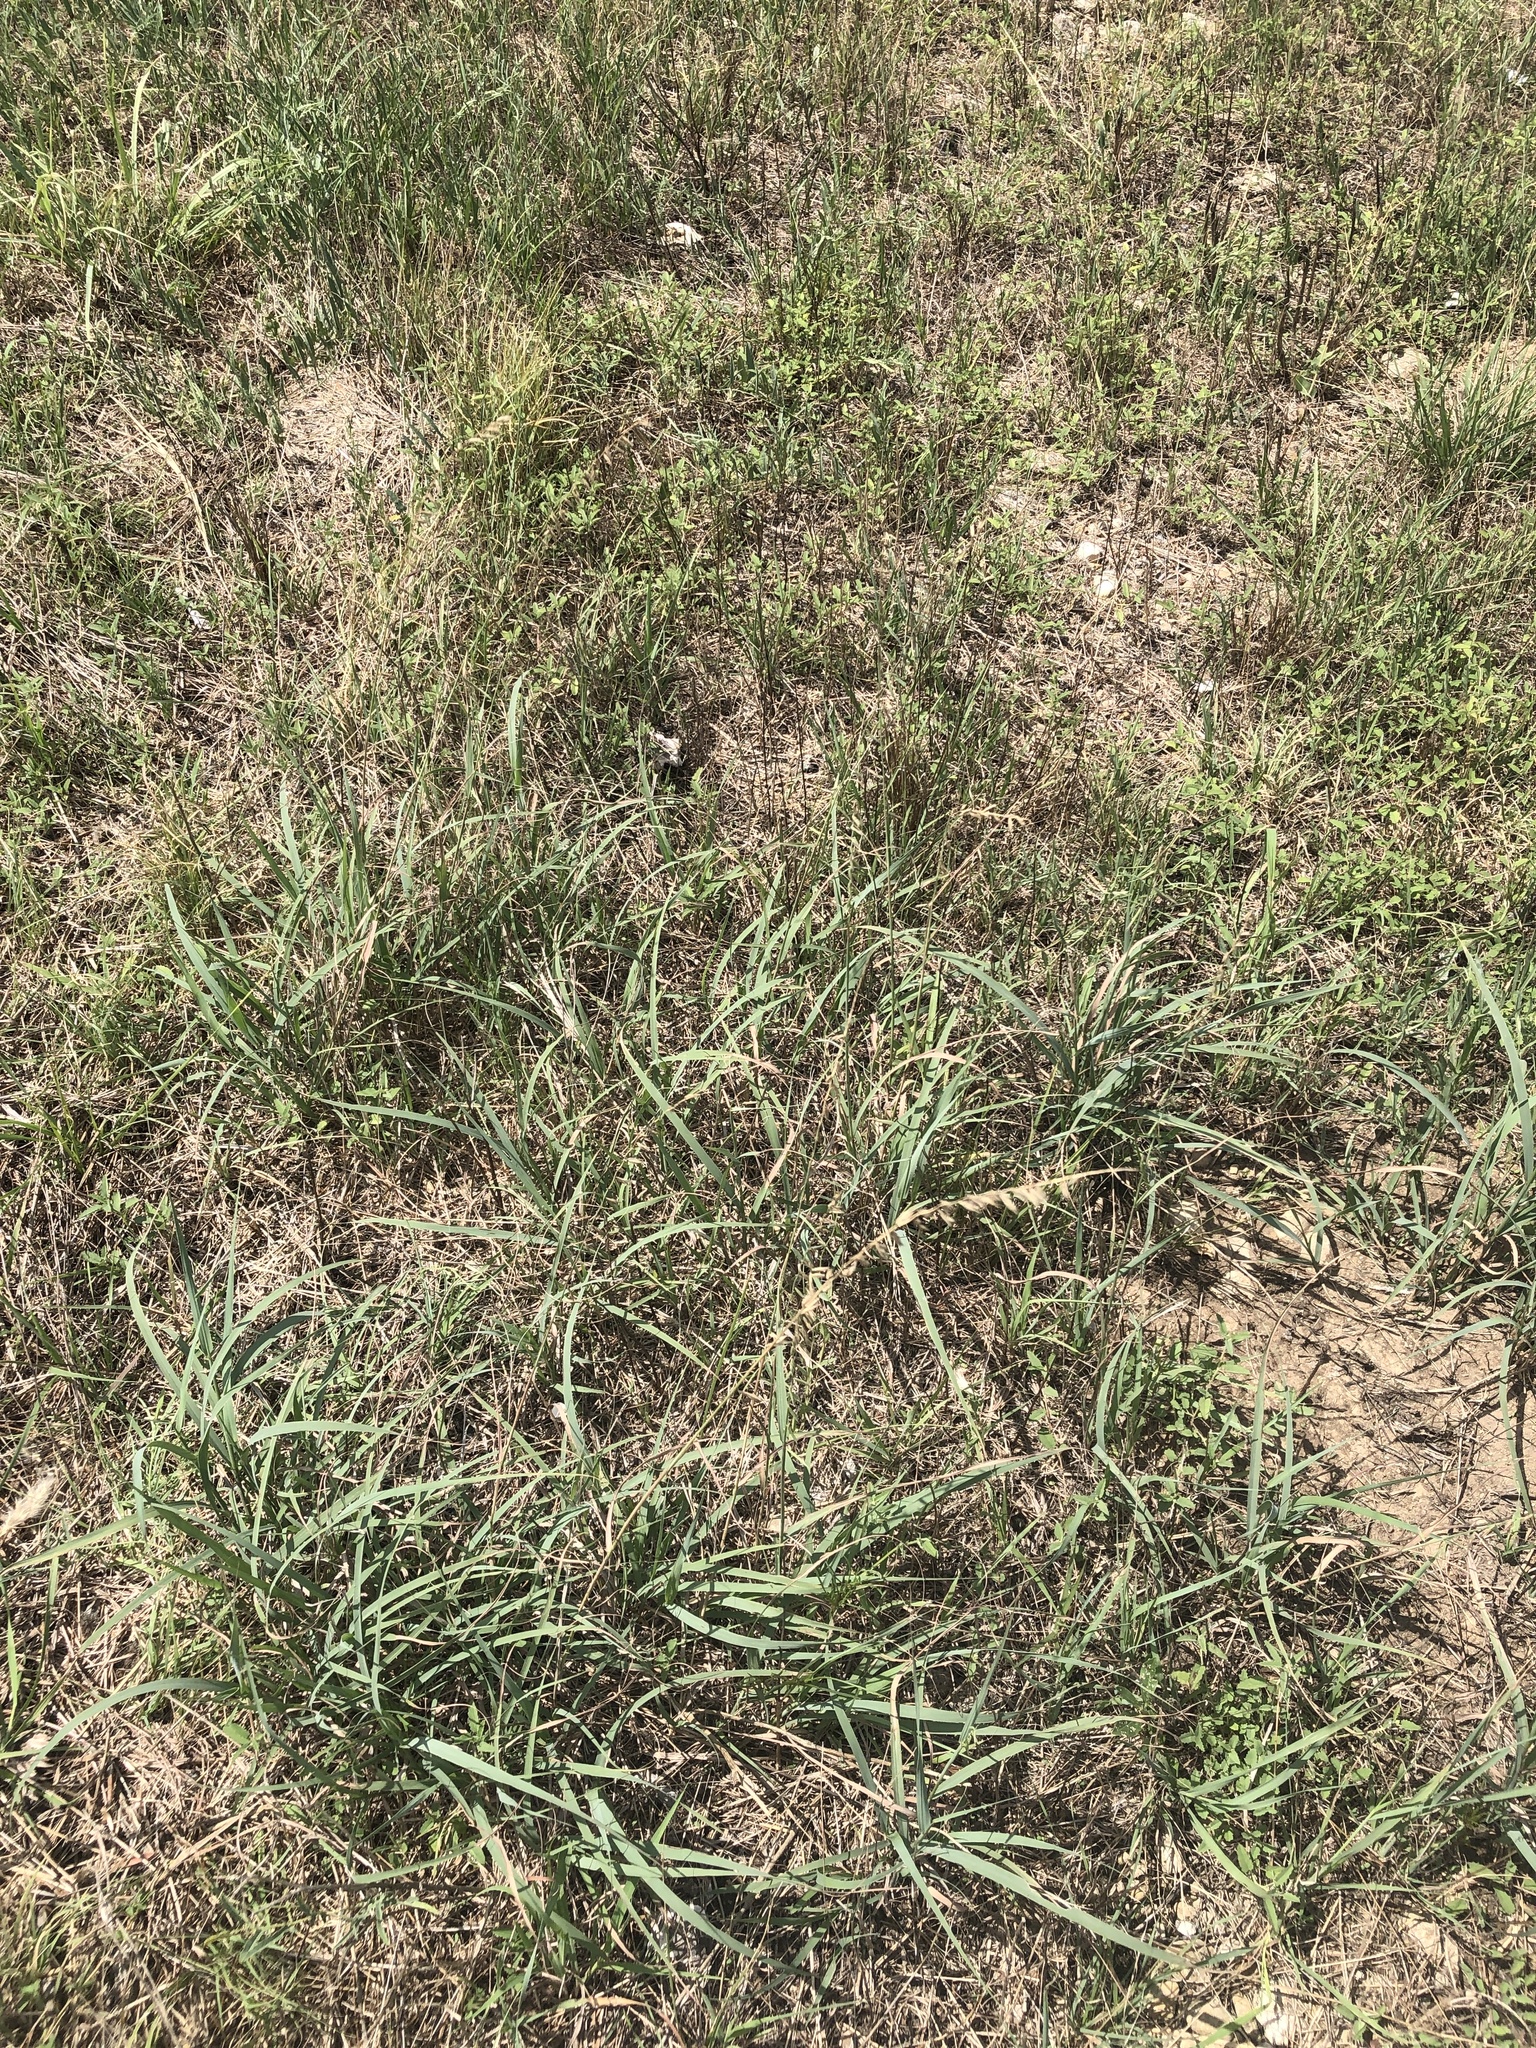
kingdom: Plantae
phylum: Tracheophyta
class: Liliopsida
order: Poales
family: Poaceae
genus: Bouteloua
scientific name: Bouteloua curtipendula
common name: Side-oats grama
